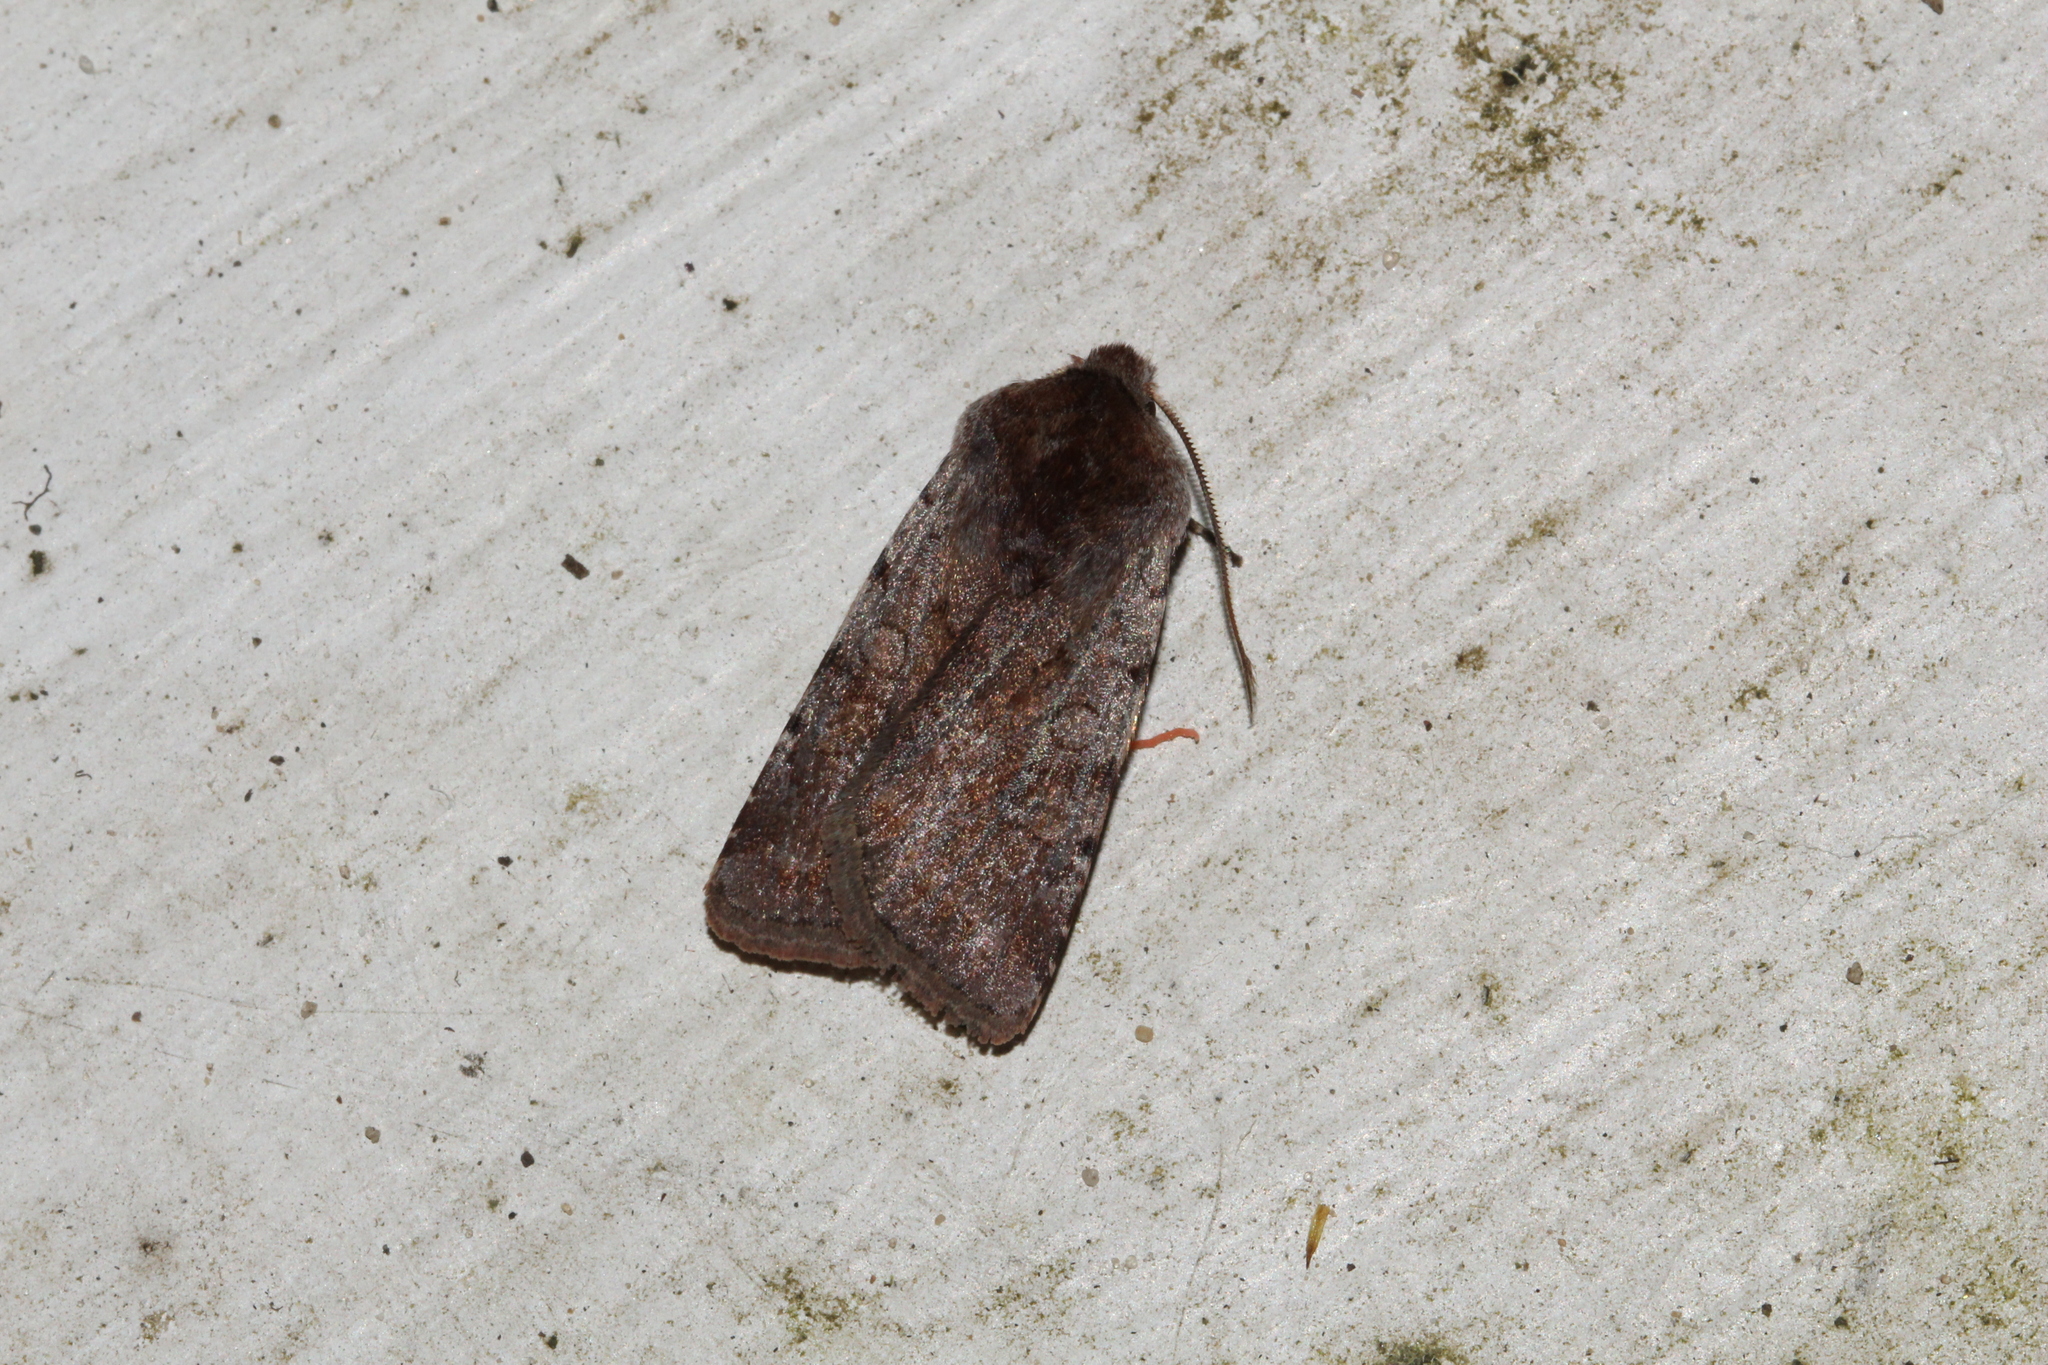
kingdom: Animalia
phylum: Arthropoda
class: Insecta
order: Lepidoptera
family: Noctuidae
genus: Cerastis
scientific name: Cerastis rubricosa
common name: Red chestnut
